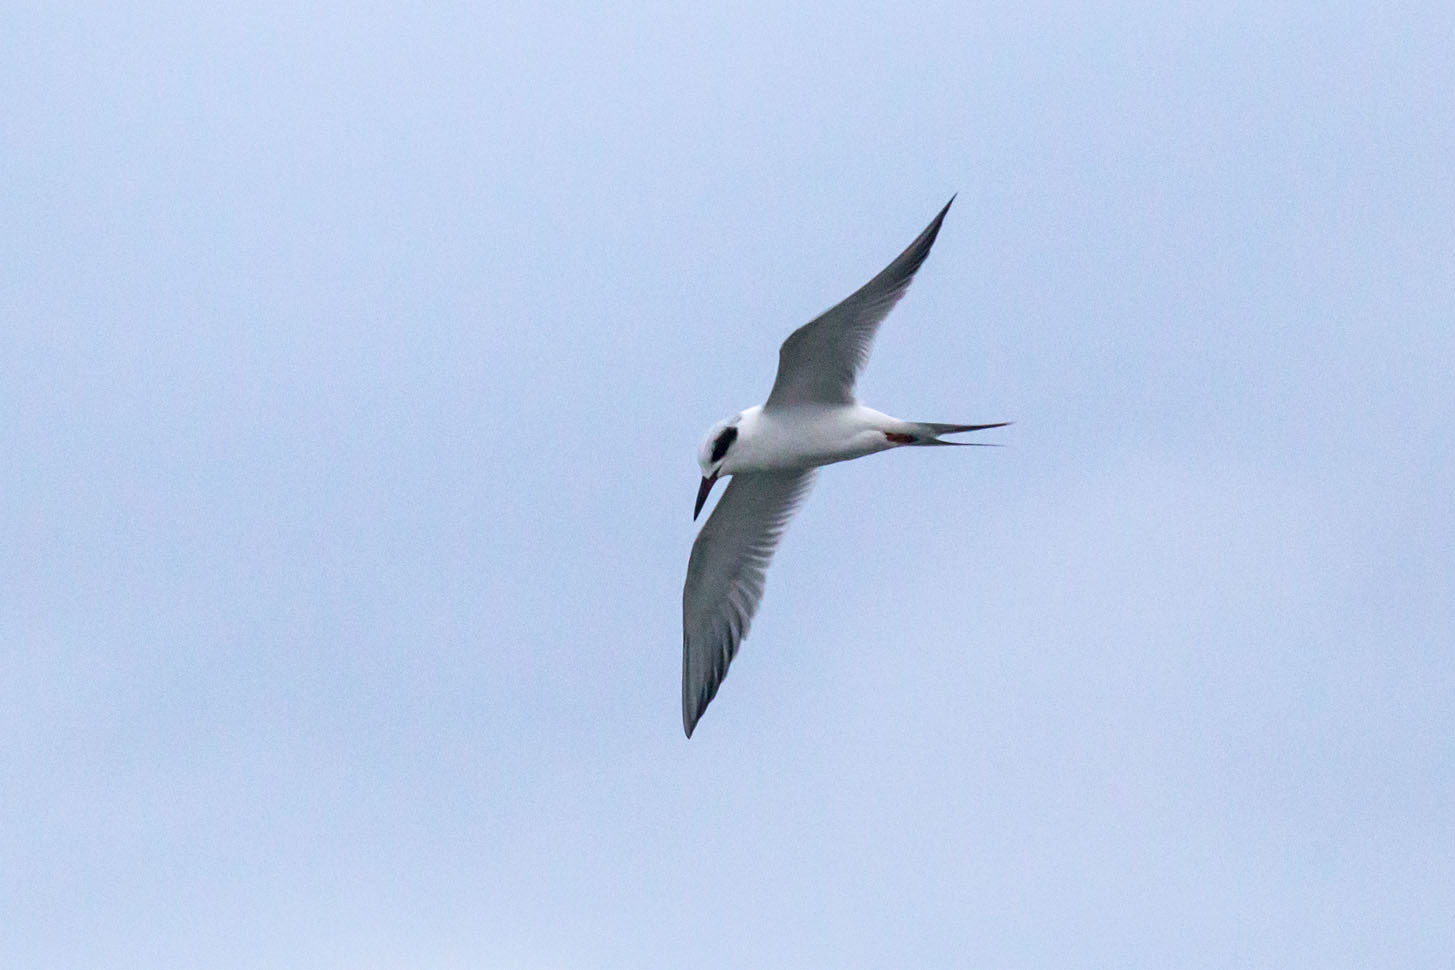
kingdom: Animalia
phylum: Chordata
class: Aves
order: Charadriiformes
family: Laridae
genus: Sterna
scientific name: Sterna forsteri
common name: Forster's tern
